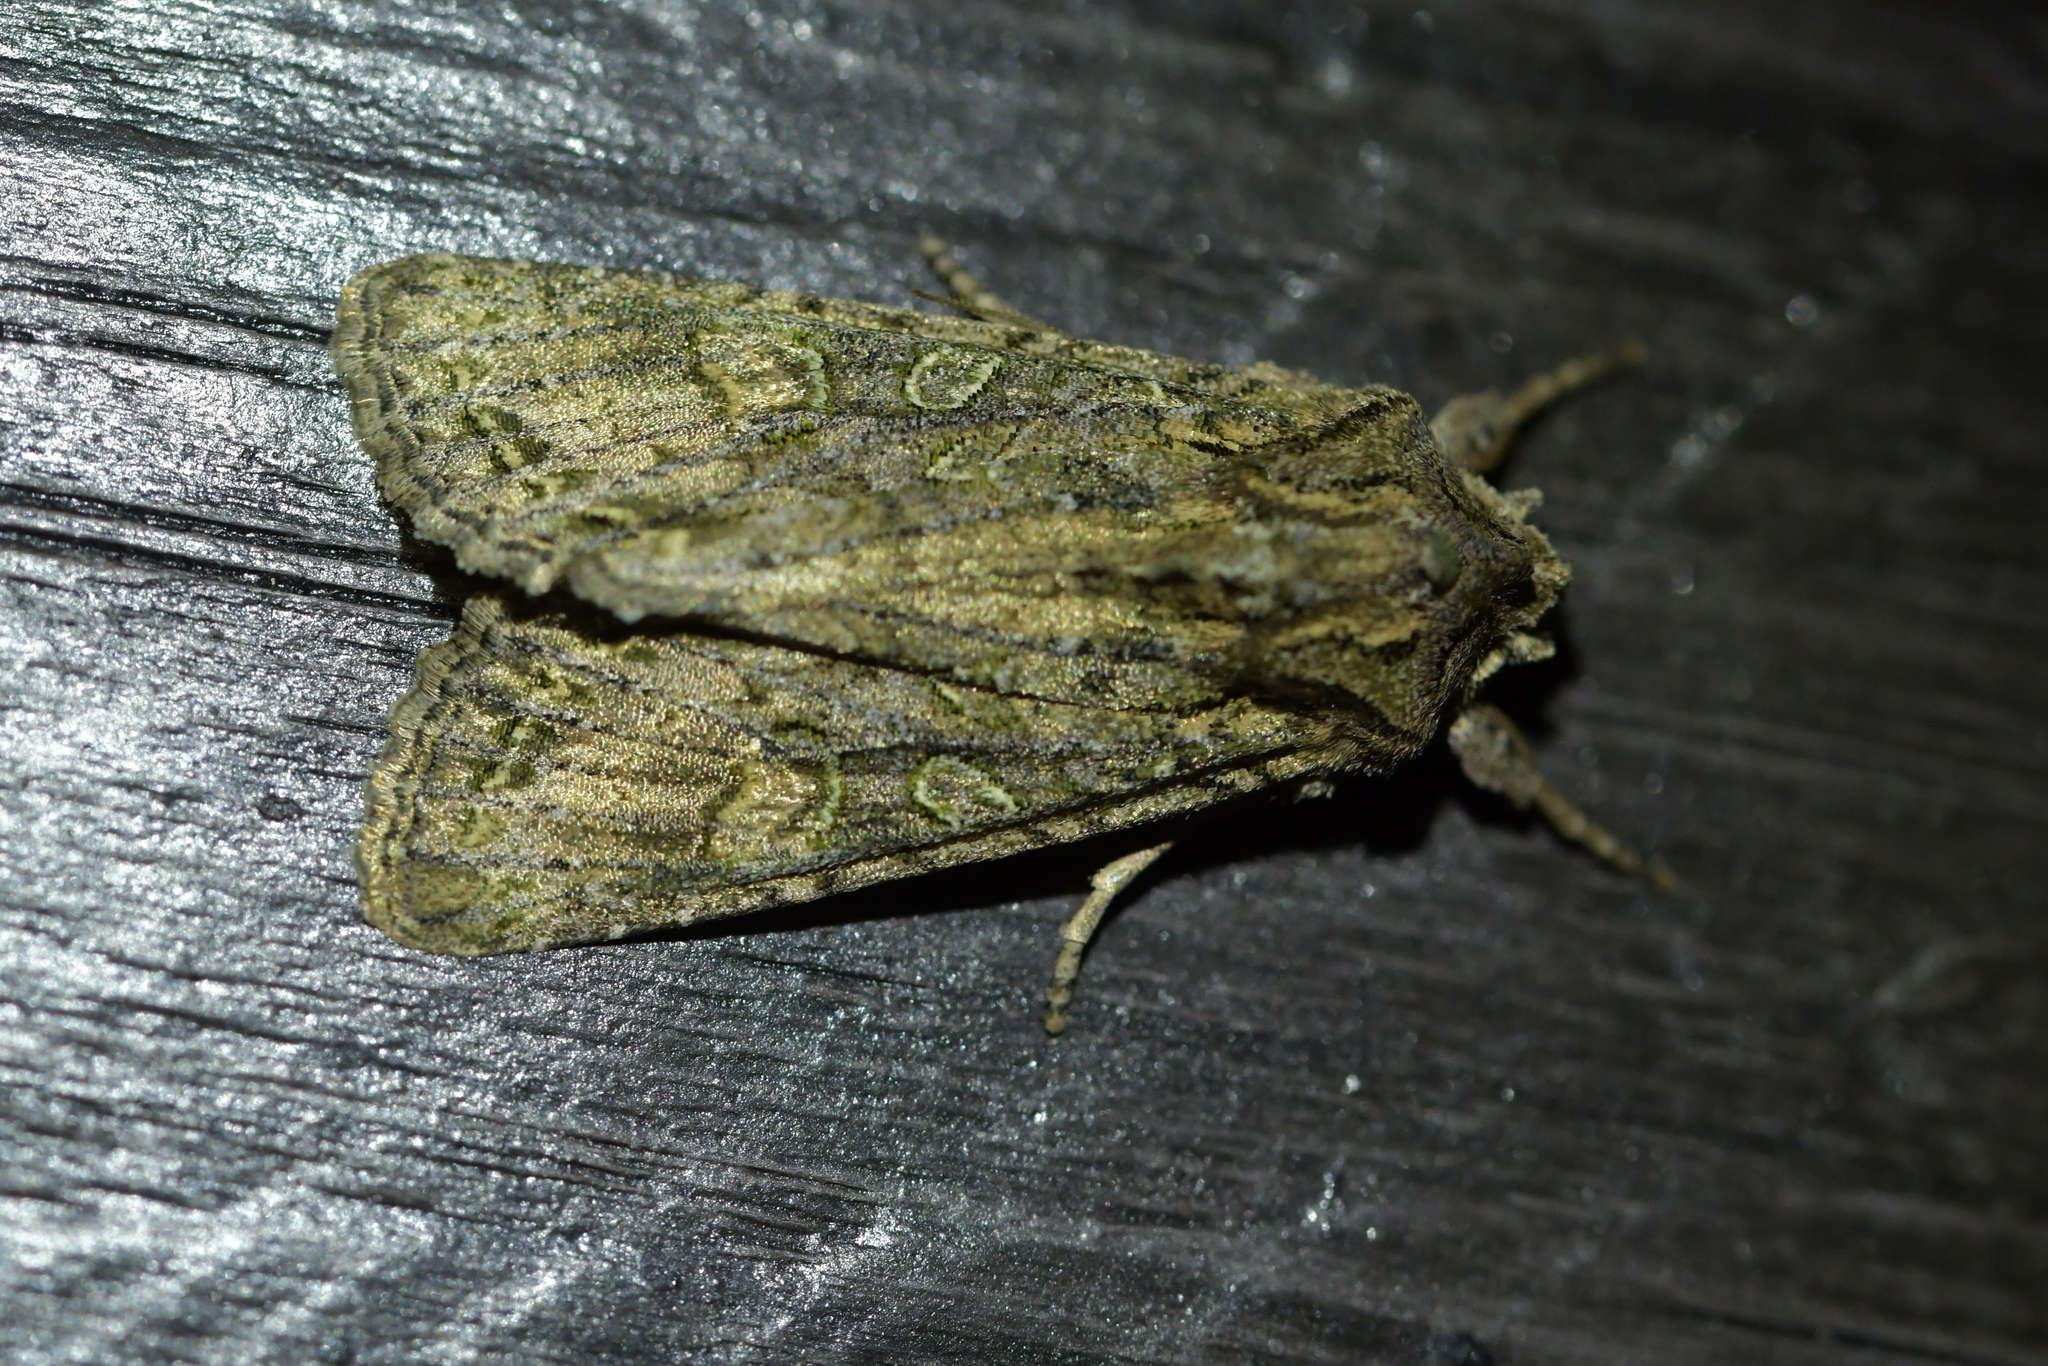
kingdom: Animalia
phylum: Arthropoda
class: Insecta
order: Lepidoptera
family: Noctuidae
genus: Ichneutica
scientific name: Ichneutica mutans
